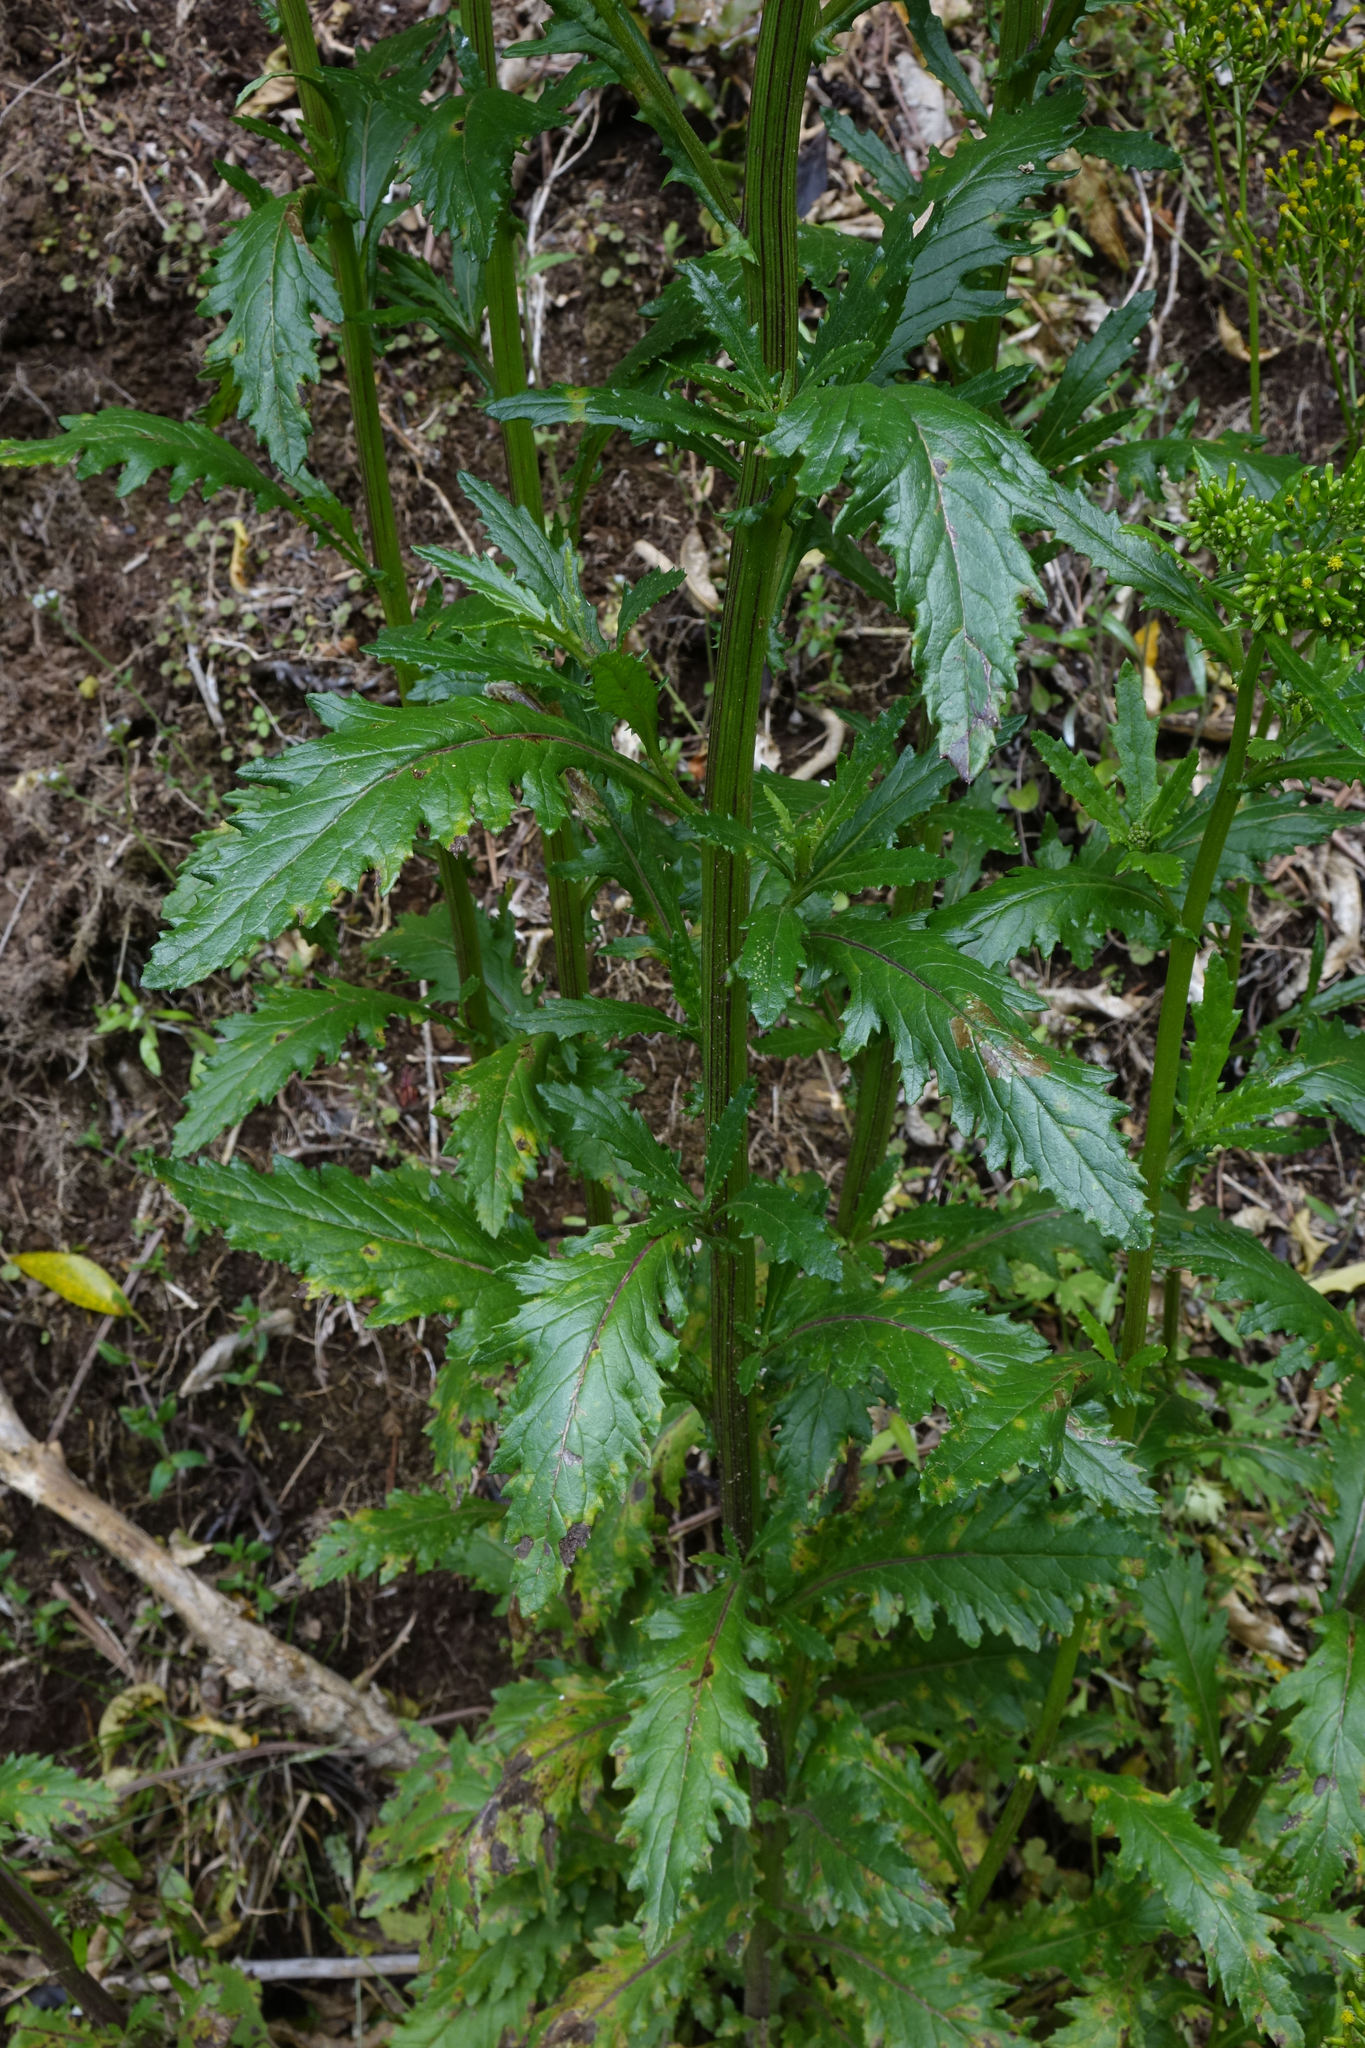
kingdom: Plantae
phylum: Tracheophyta
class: Magnoliopsida
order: Asterales
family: Asteraceae
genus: Senecio
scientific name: Senecio biserratus
